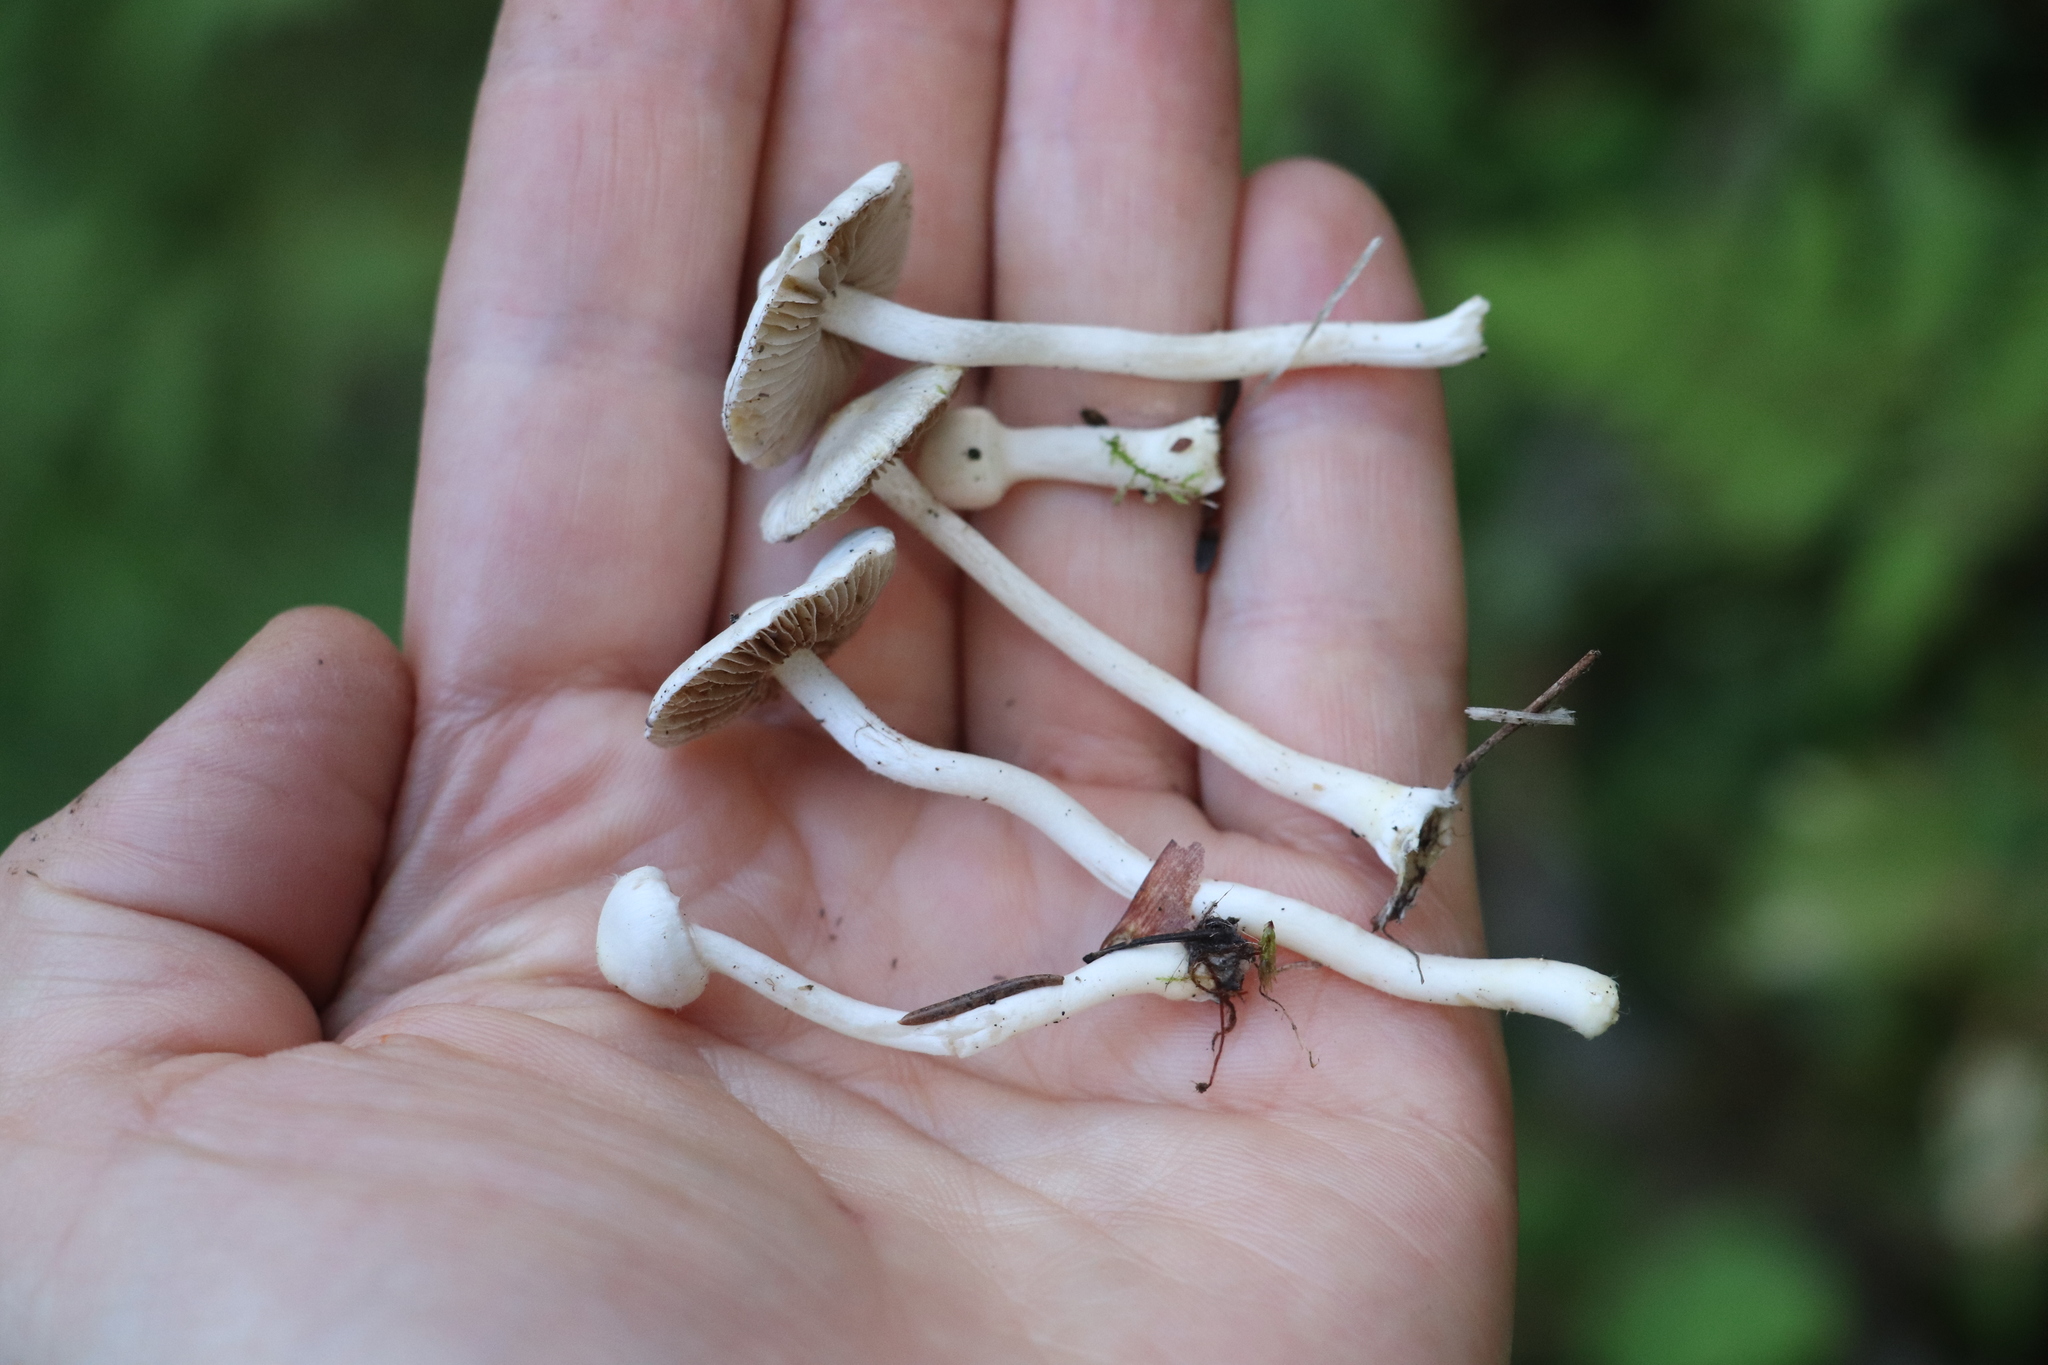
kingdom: Fungi
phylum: Basidiomycota
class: Agaricomycetes
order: Agaricales
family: Inocybaceae
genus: Inocybe
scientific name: Inocybe geophylla
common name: White fibrecap
